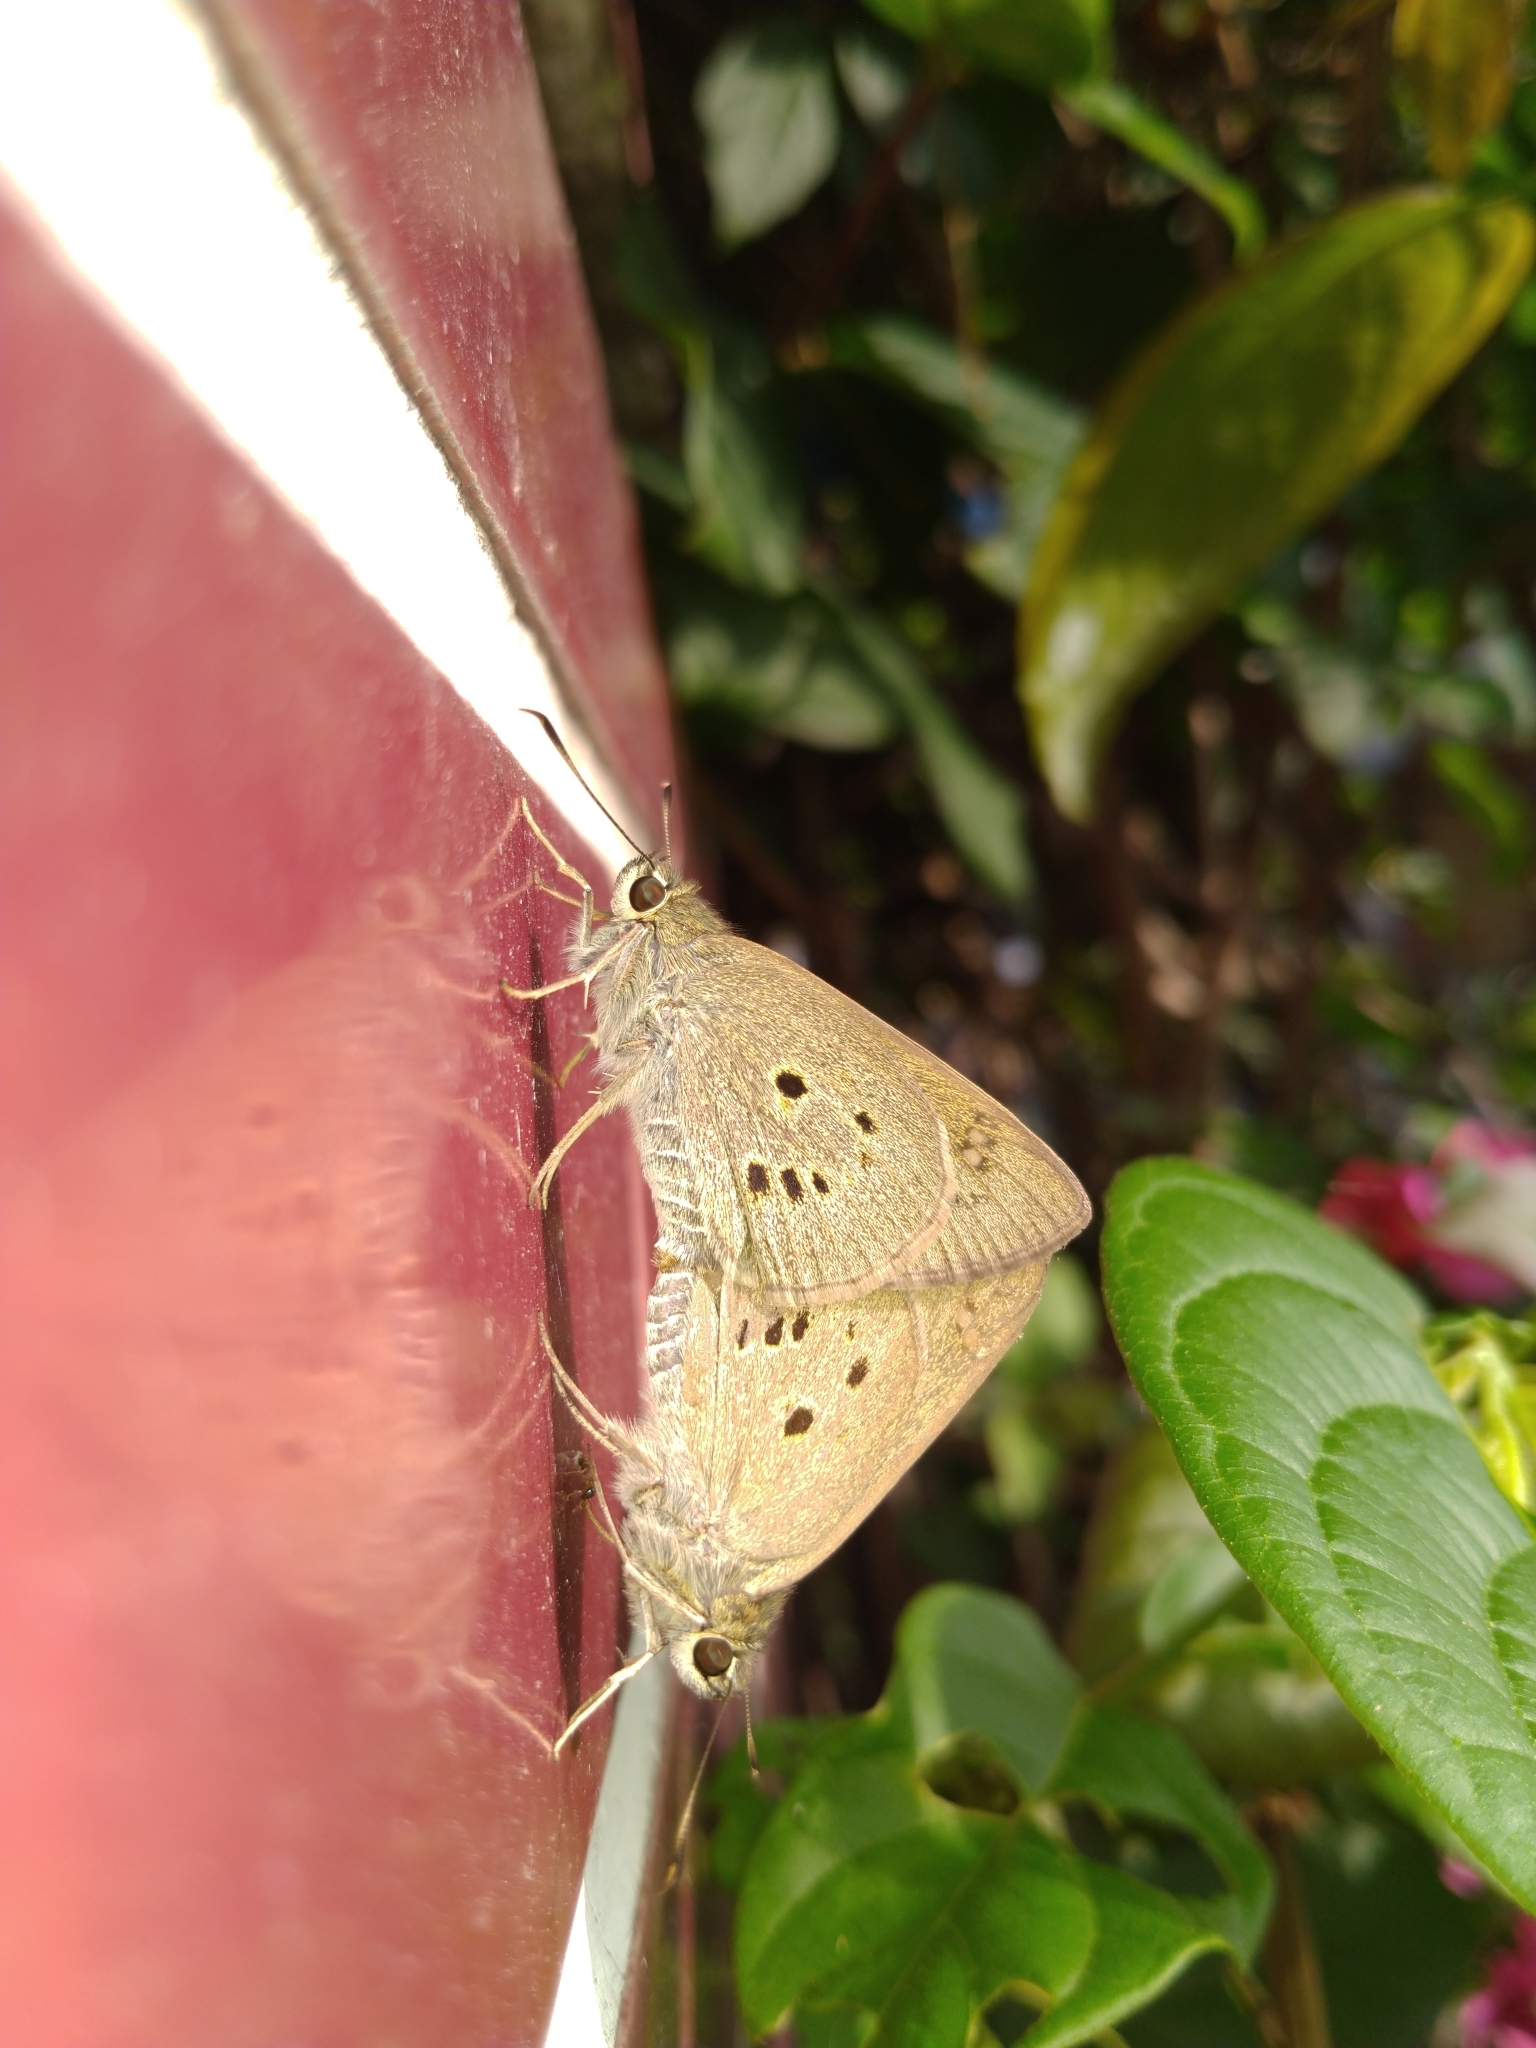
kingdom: Animalia
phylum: Arthropoda
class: Insecta
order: Lepidoptera
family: Hesperiidae
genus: Suastus
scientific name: Suastus gremius
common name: Indian palm bob
